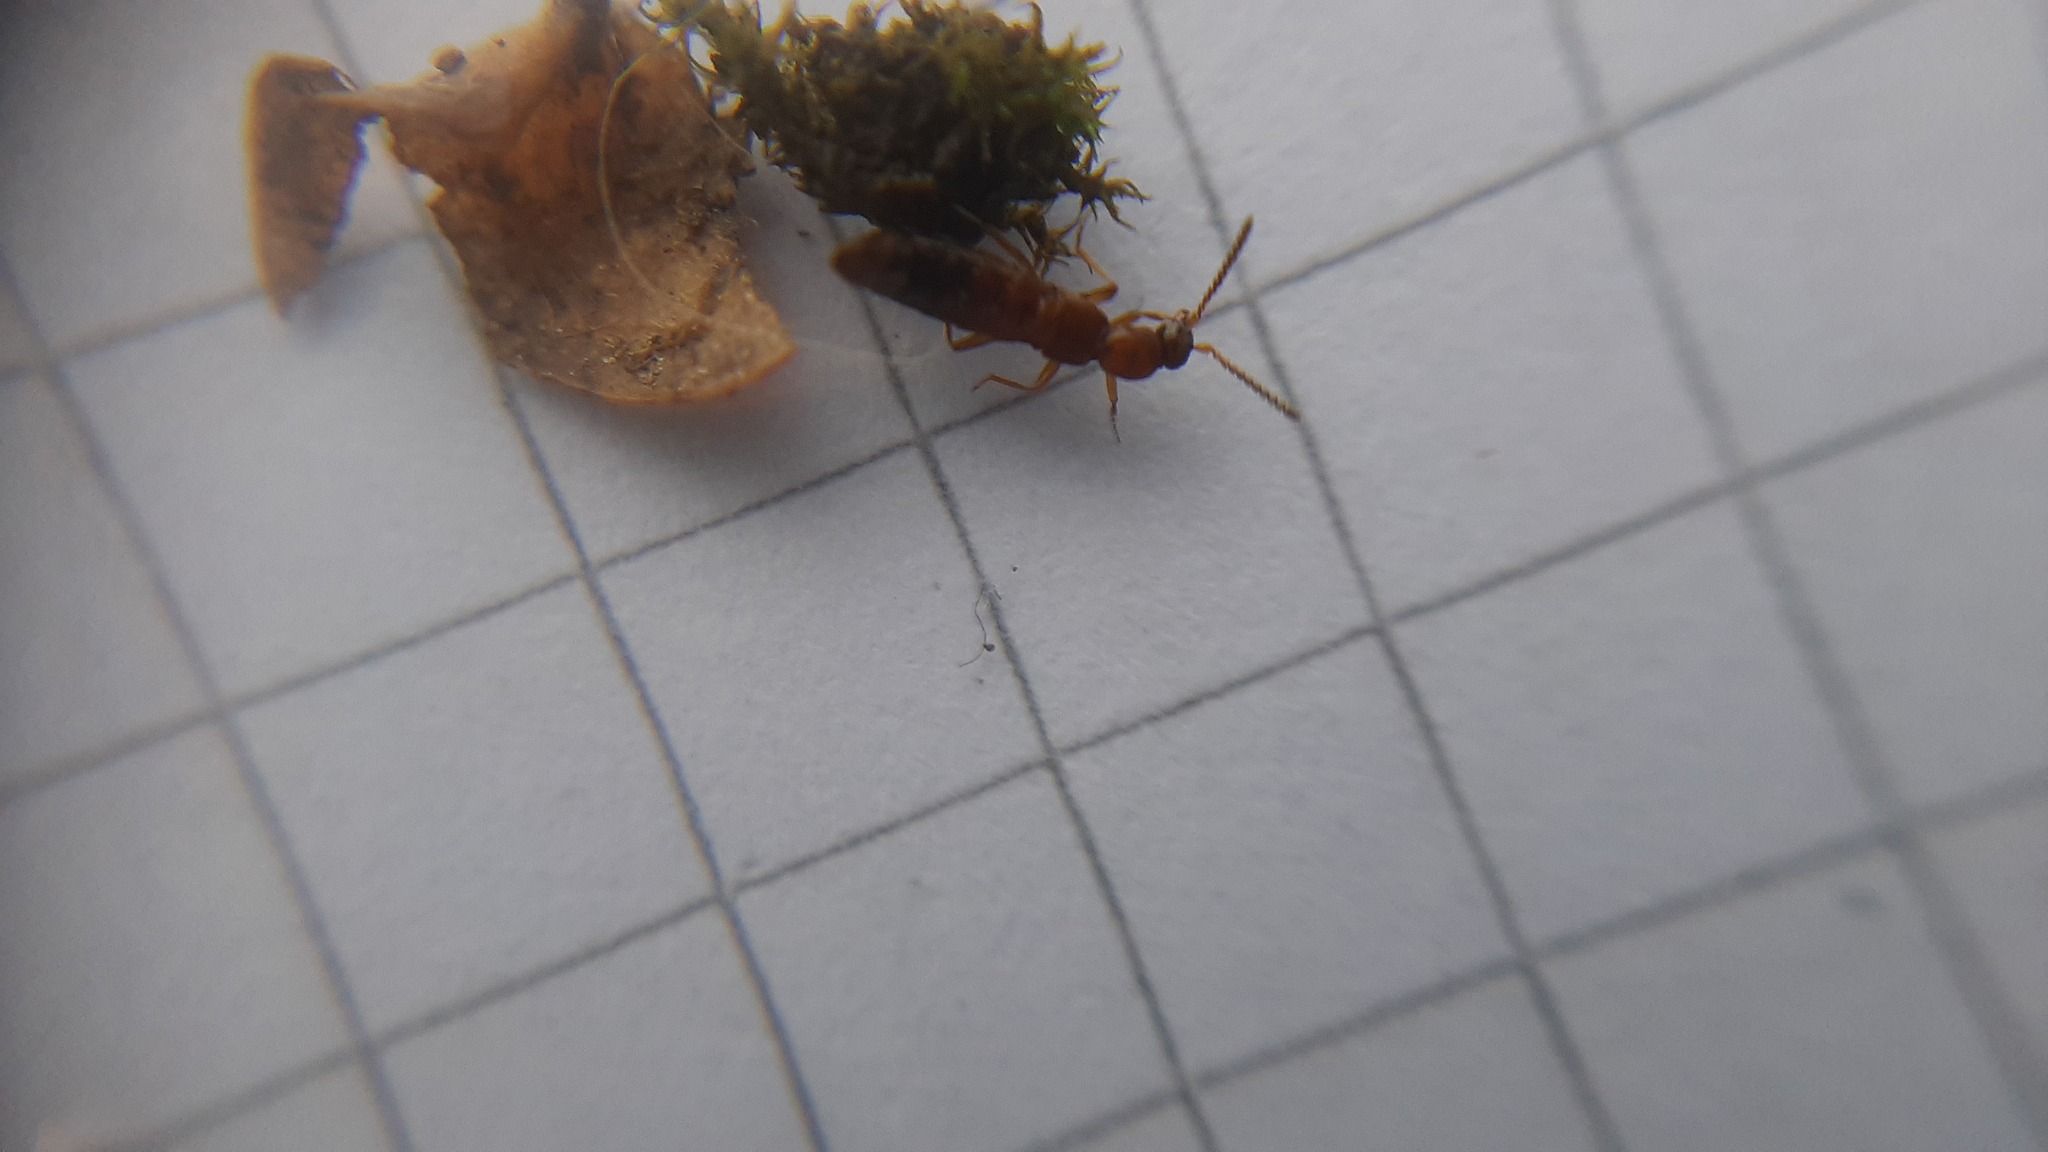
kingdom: Animalia
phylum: Arthropoda
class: Insecta
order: Coleoptera
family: Staphylinidae
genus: Drusilla
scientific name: Drusilla canaliculata
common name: Rove beetle
